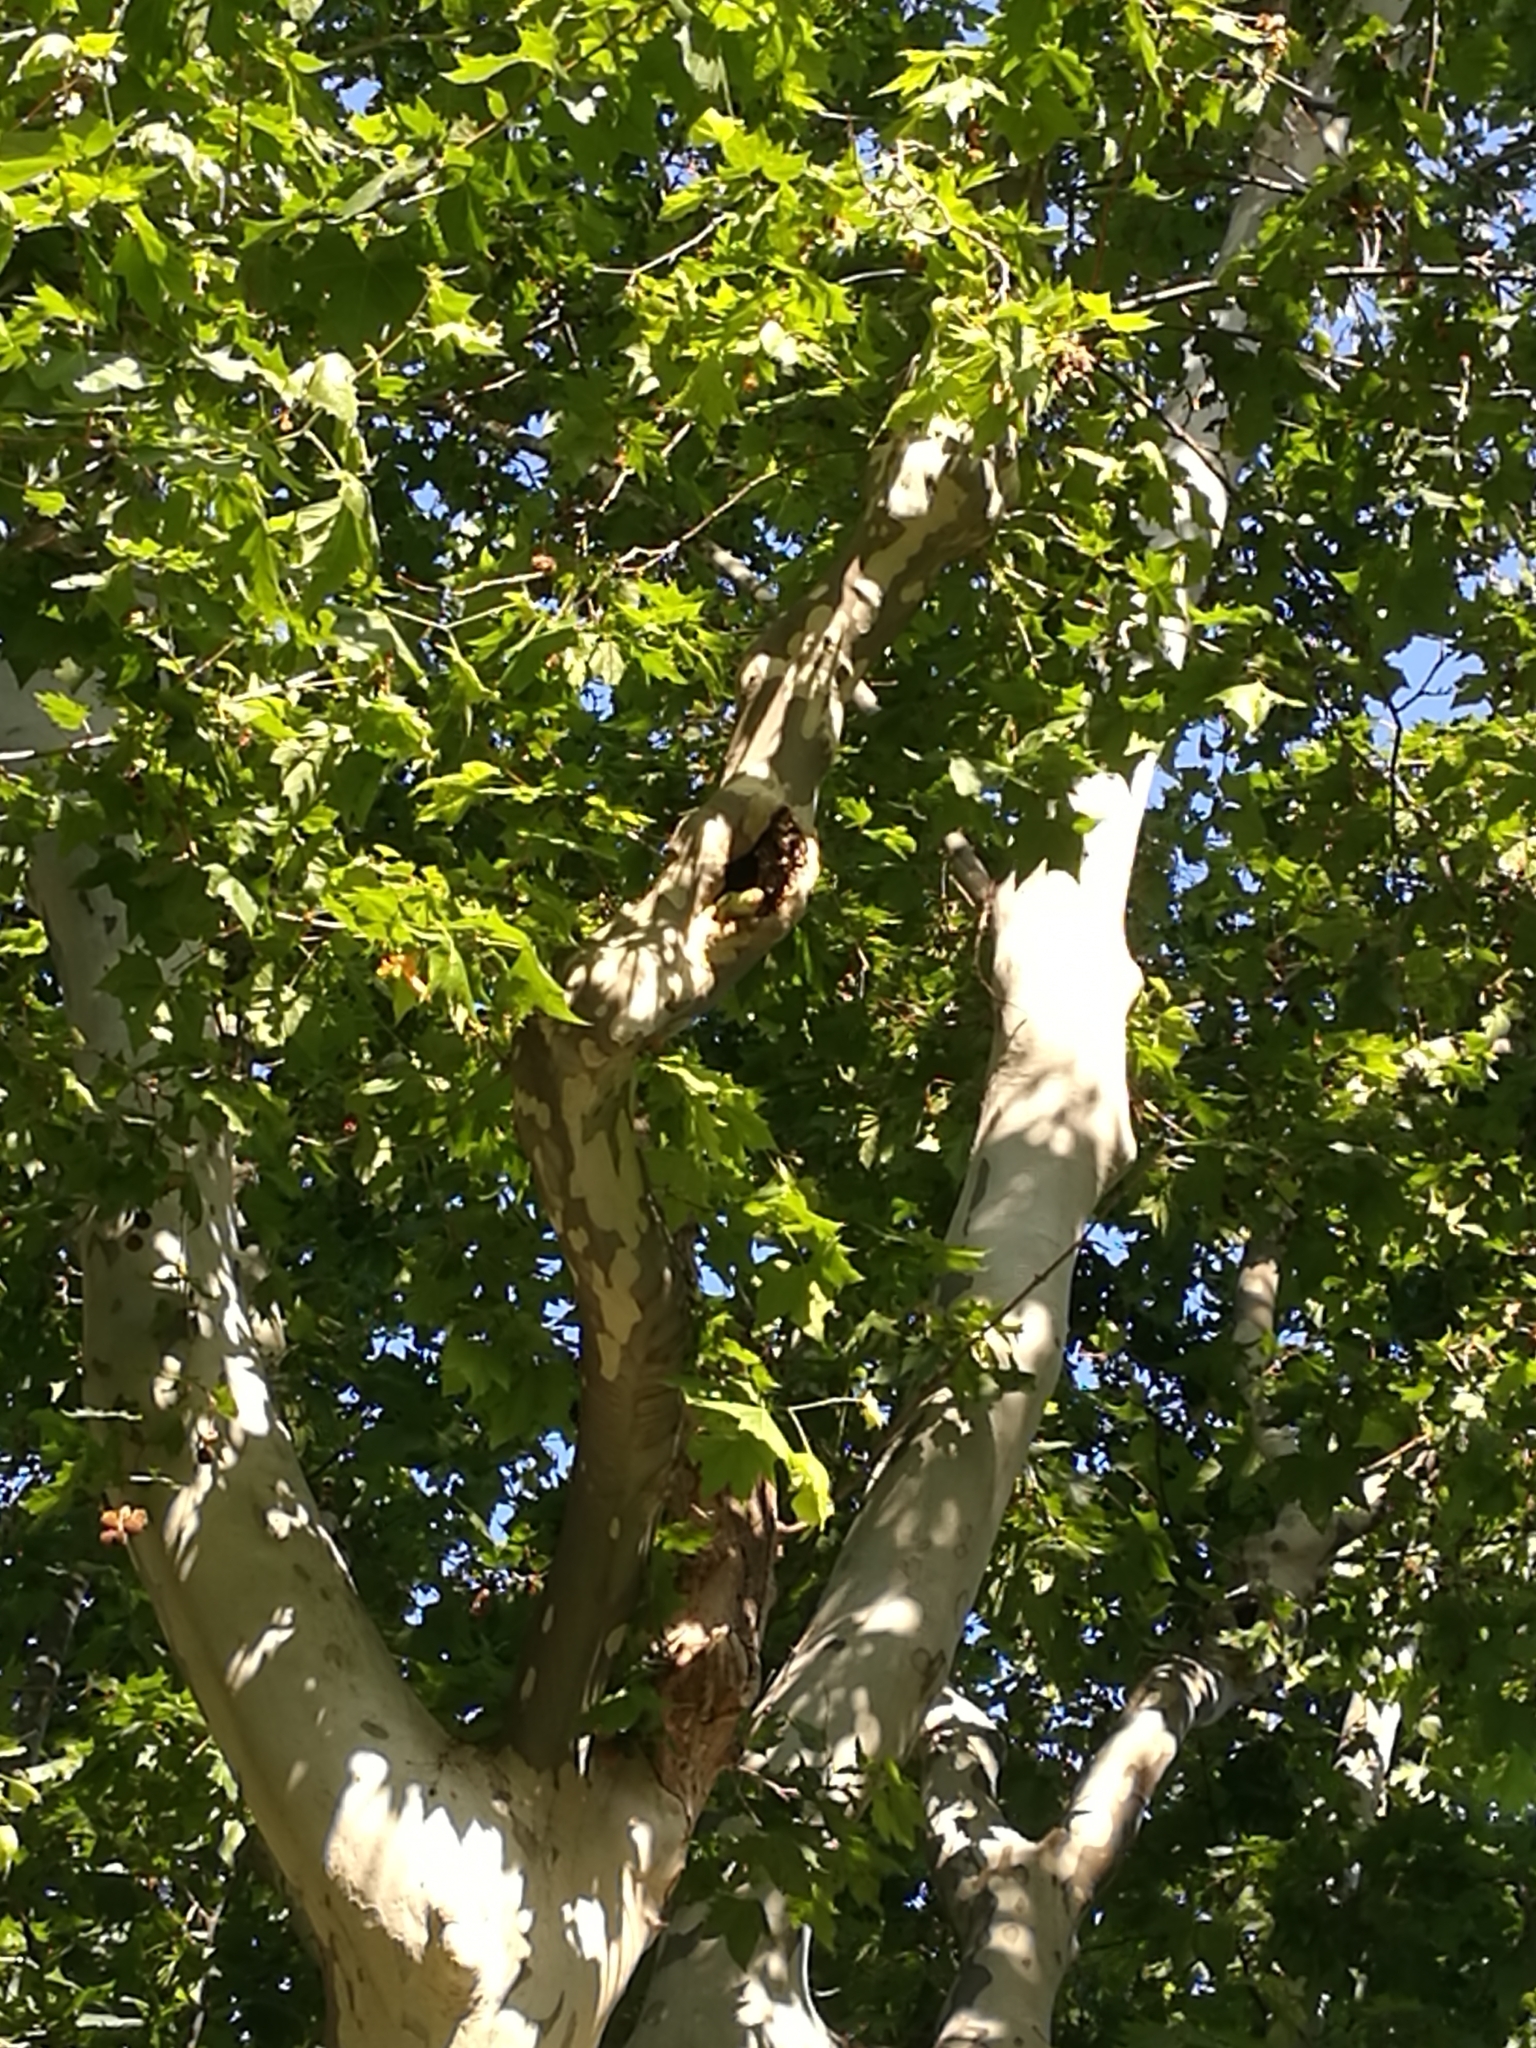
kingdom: Animalia
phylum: Chordata
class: Aves
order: Psittaciformes
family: Psittacidae
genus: Psittacula
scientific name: Psittacula krameri
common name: Rose-ringed parakeet
